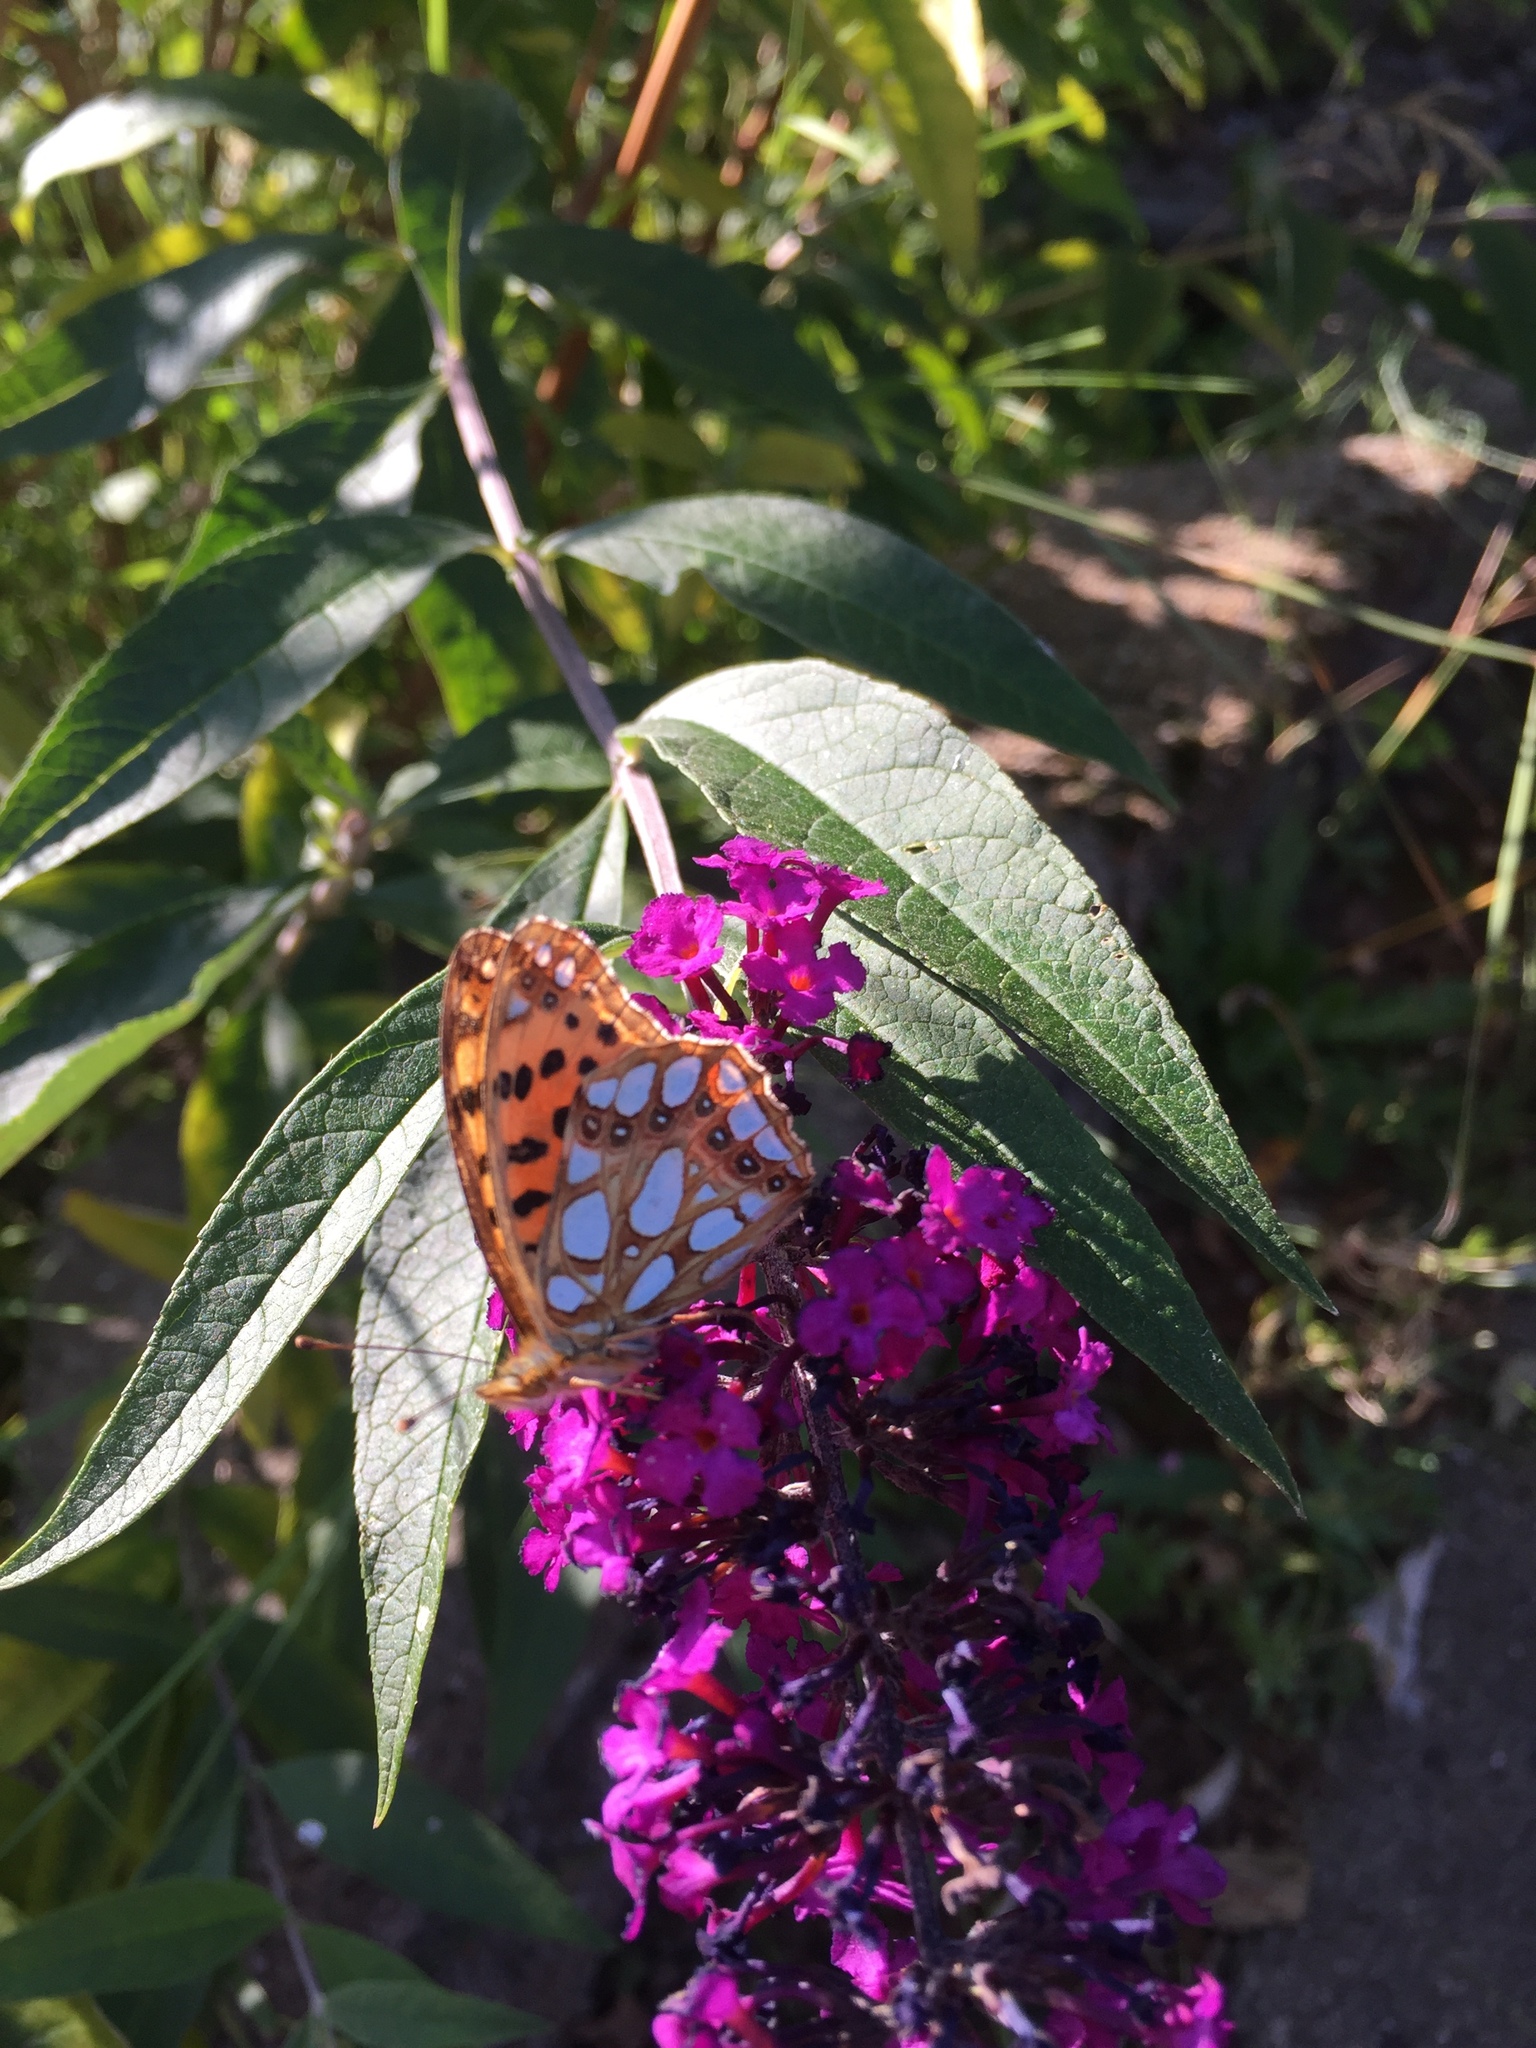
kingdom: Animalia
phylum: Arthropoda
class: Insecta
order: Lepidoptera
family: Nymphalidae
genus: Issoria
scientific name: Issoria lathonia
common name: Queen of spain fritillary
